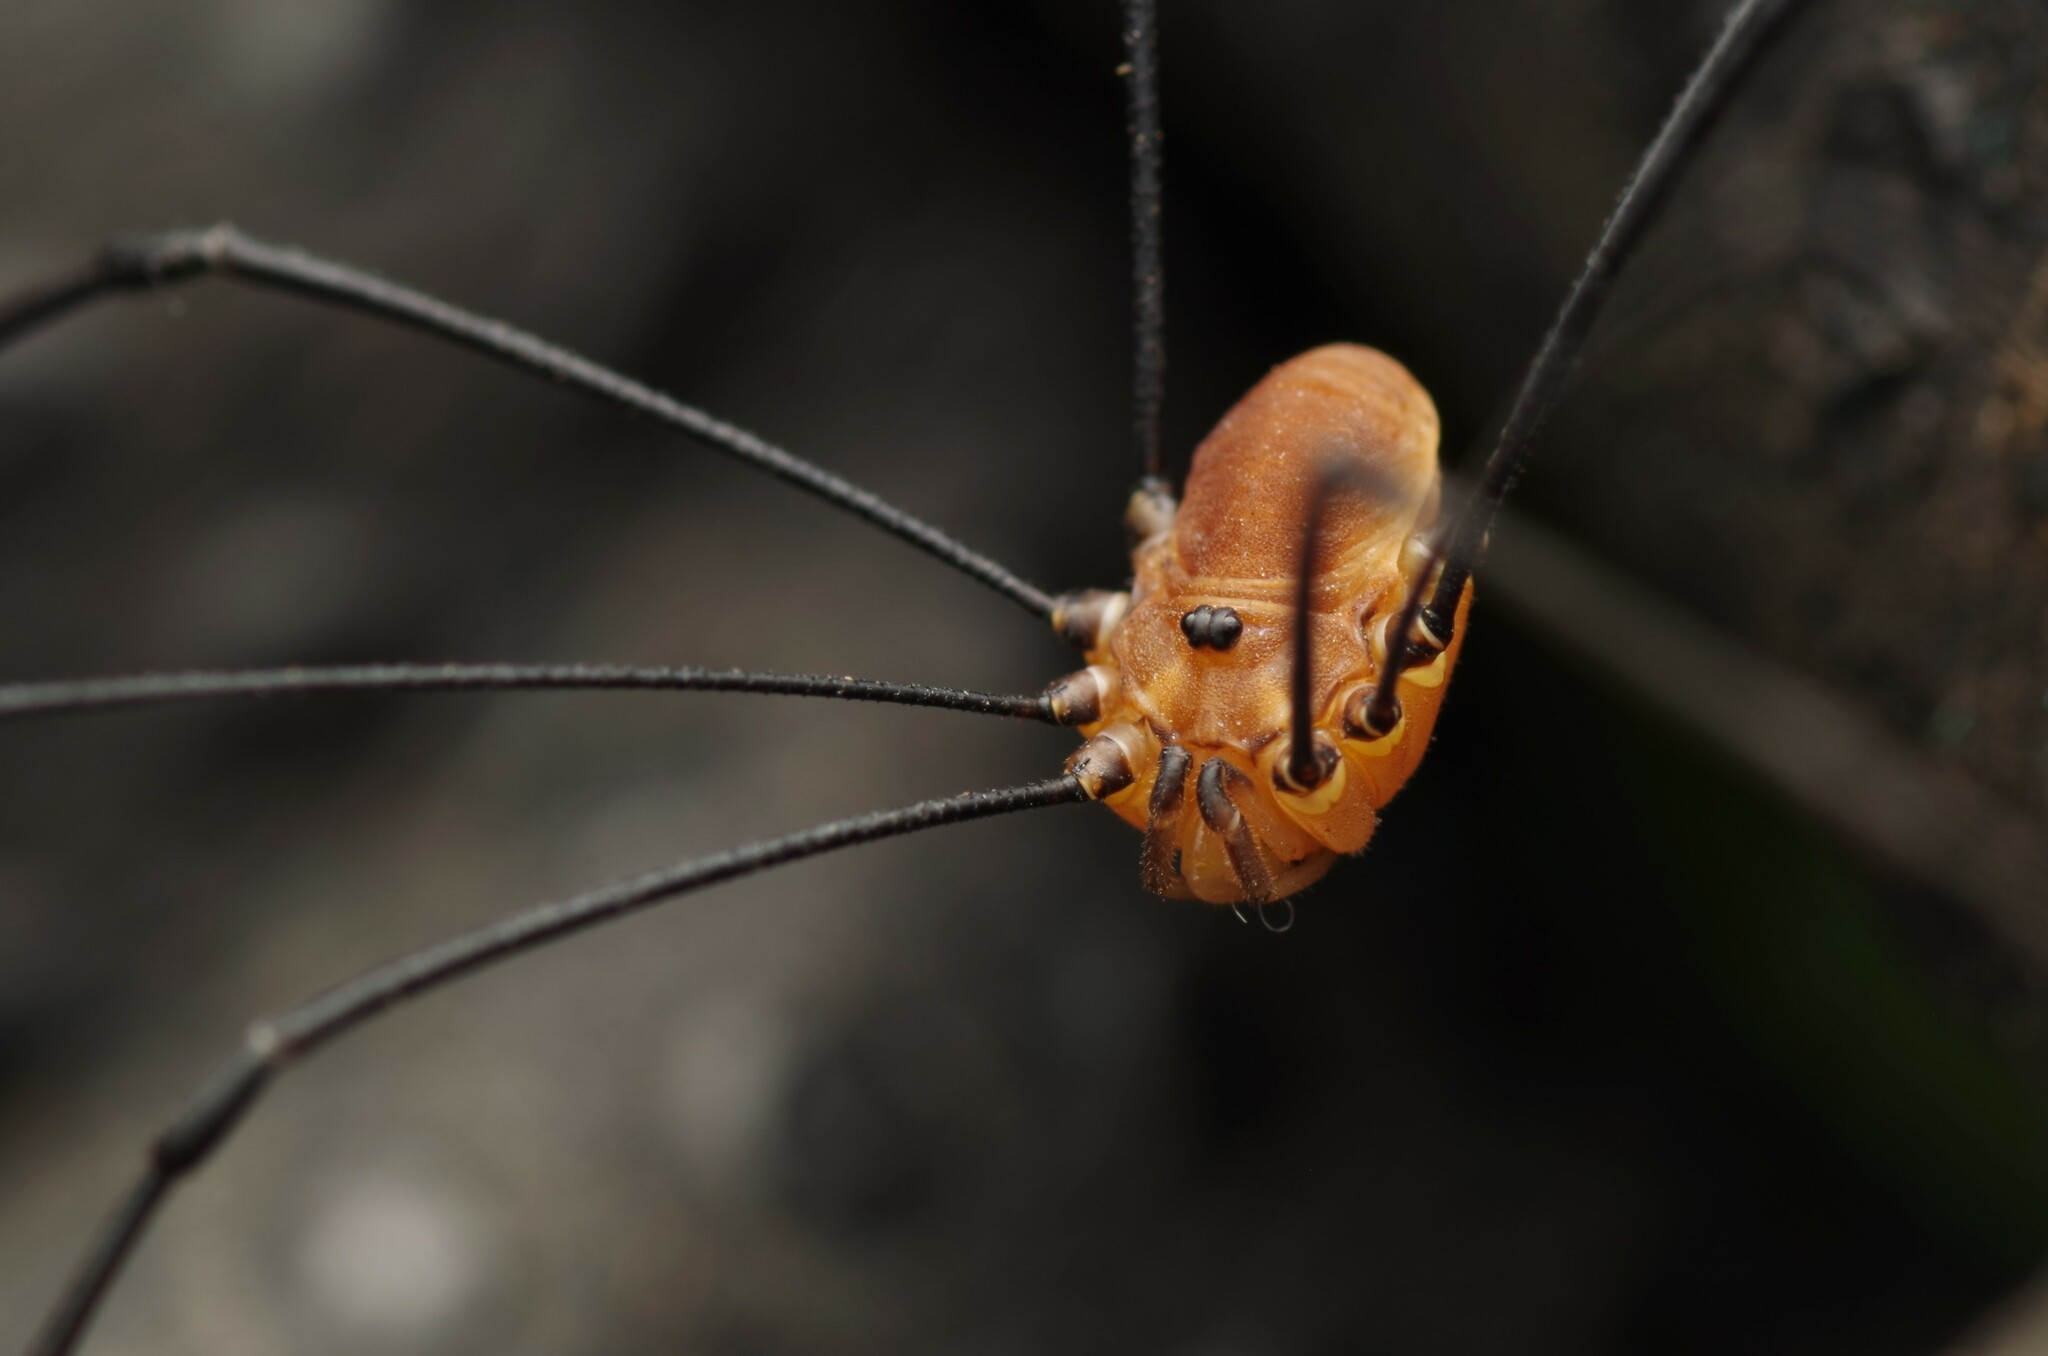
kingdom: Animalia
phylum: Arthropoda
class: Arachnida
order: Opiliones
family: Sclerosomatidae
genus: Leiobunum
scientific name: Leiobunum rotundum
